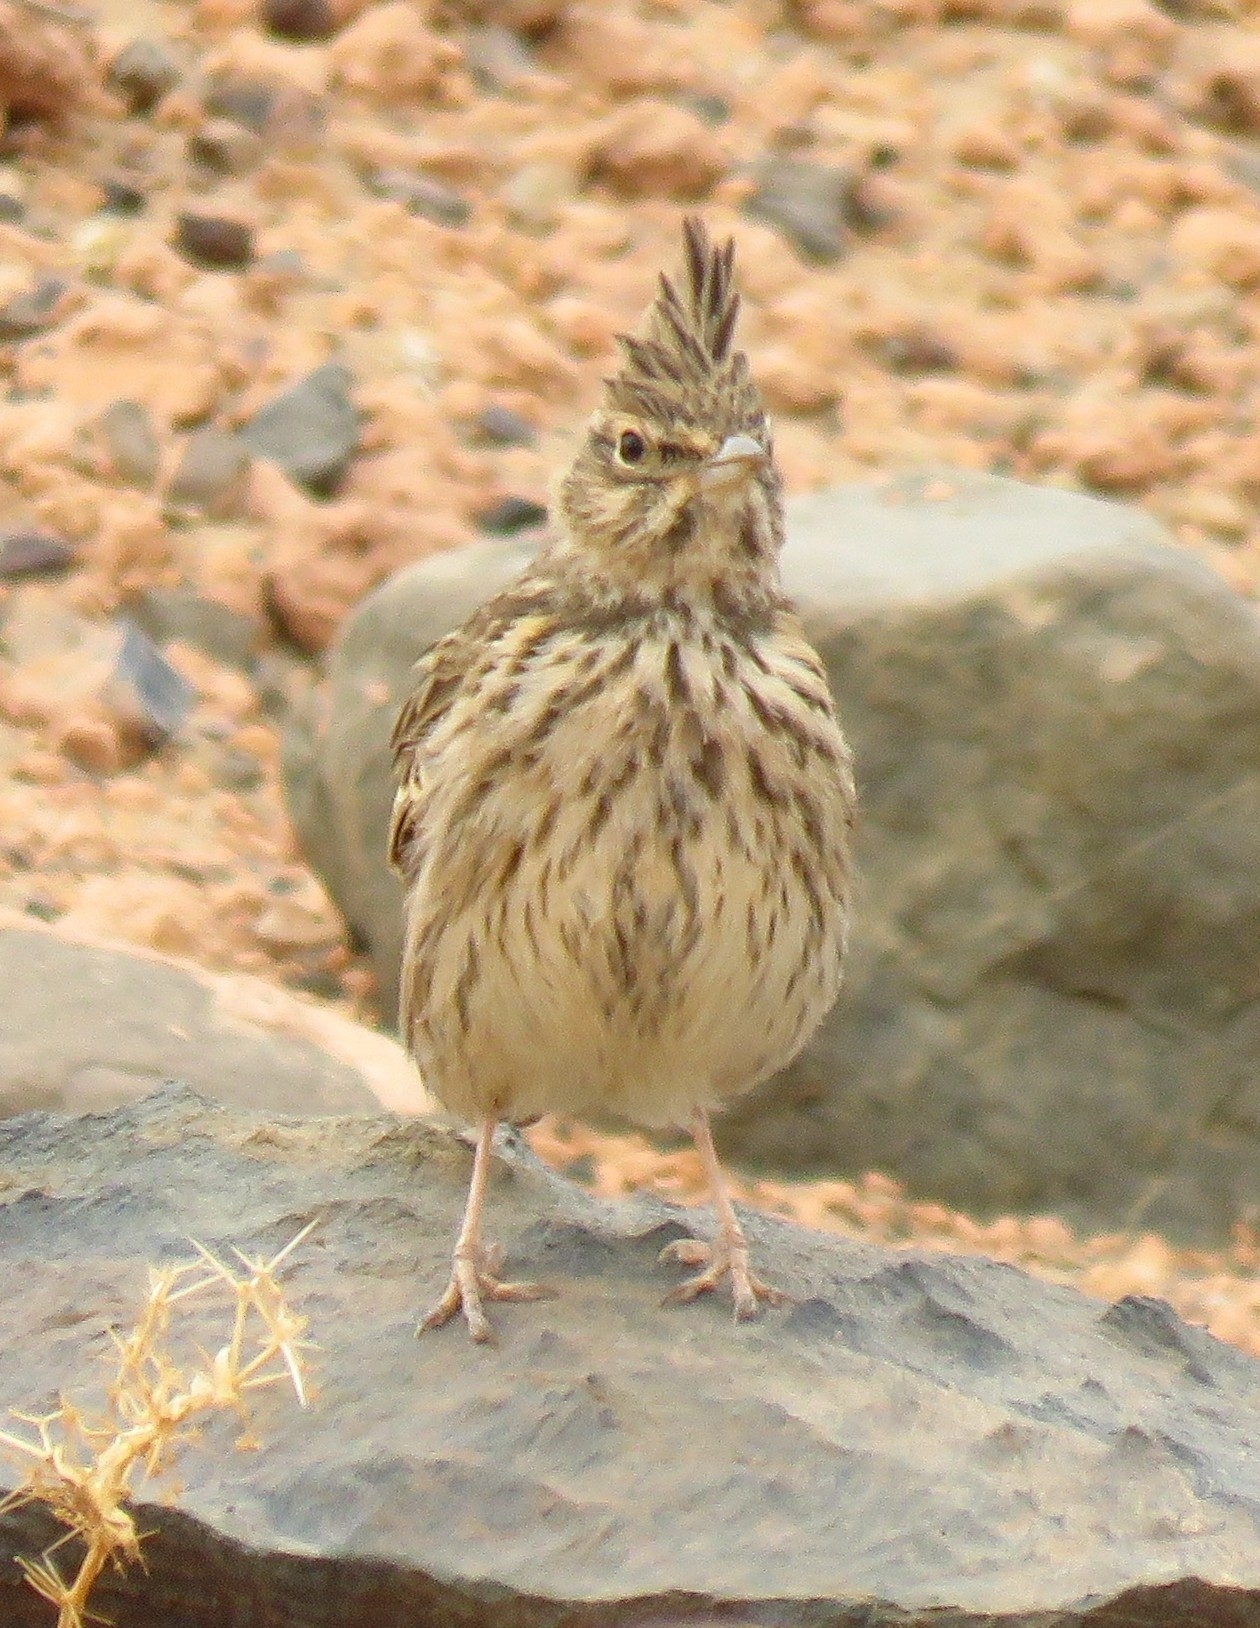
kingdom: Animalia
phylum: Chordata
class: Aves
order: Passeriformes
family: Alaudidae
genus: Galerida
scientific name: Galerida cristata
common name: Crested lark
